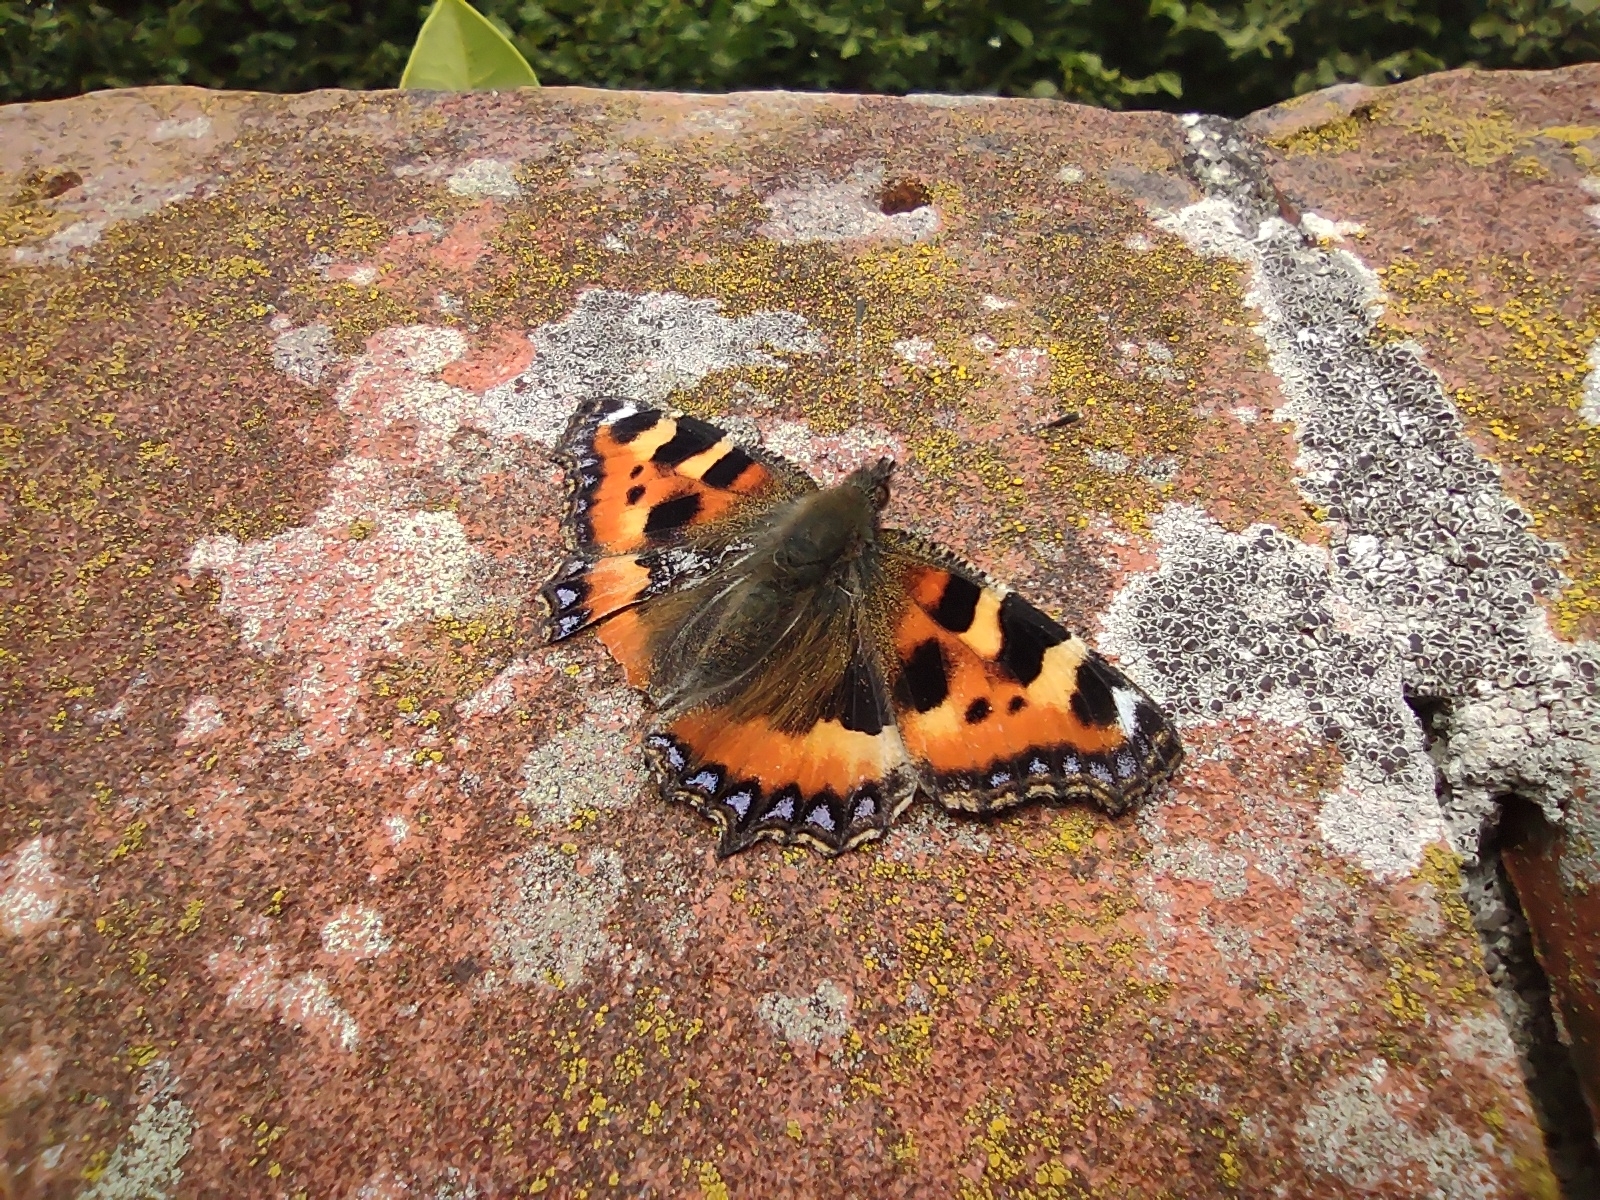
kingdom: Animalia
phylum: Arthropoda
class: Insecta
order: Lepidoptera
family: Nymphalidae
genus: Aglais
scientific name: Aglais urticae
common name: Small tortoiseshell
